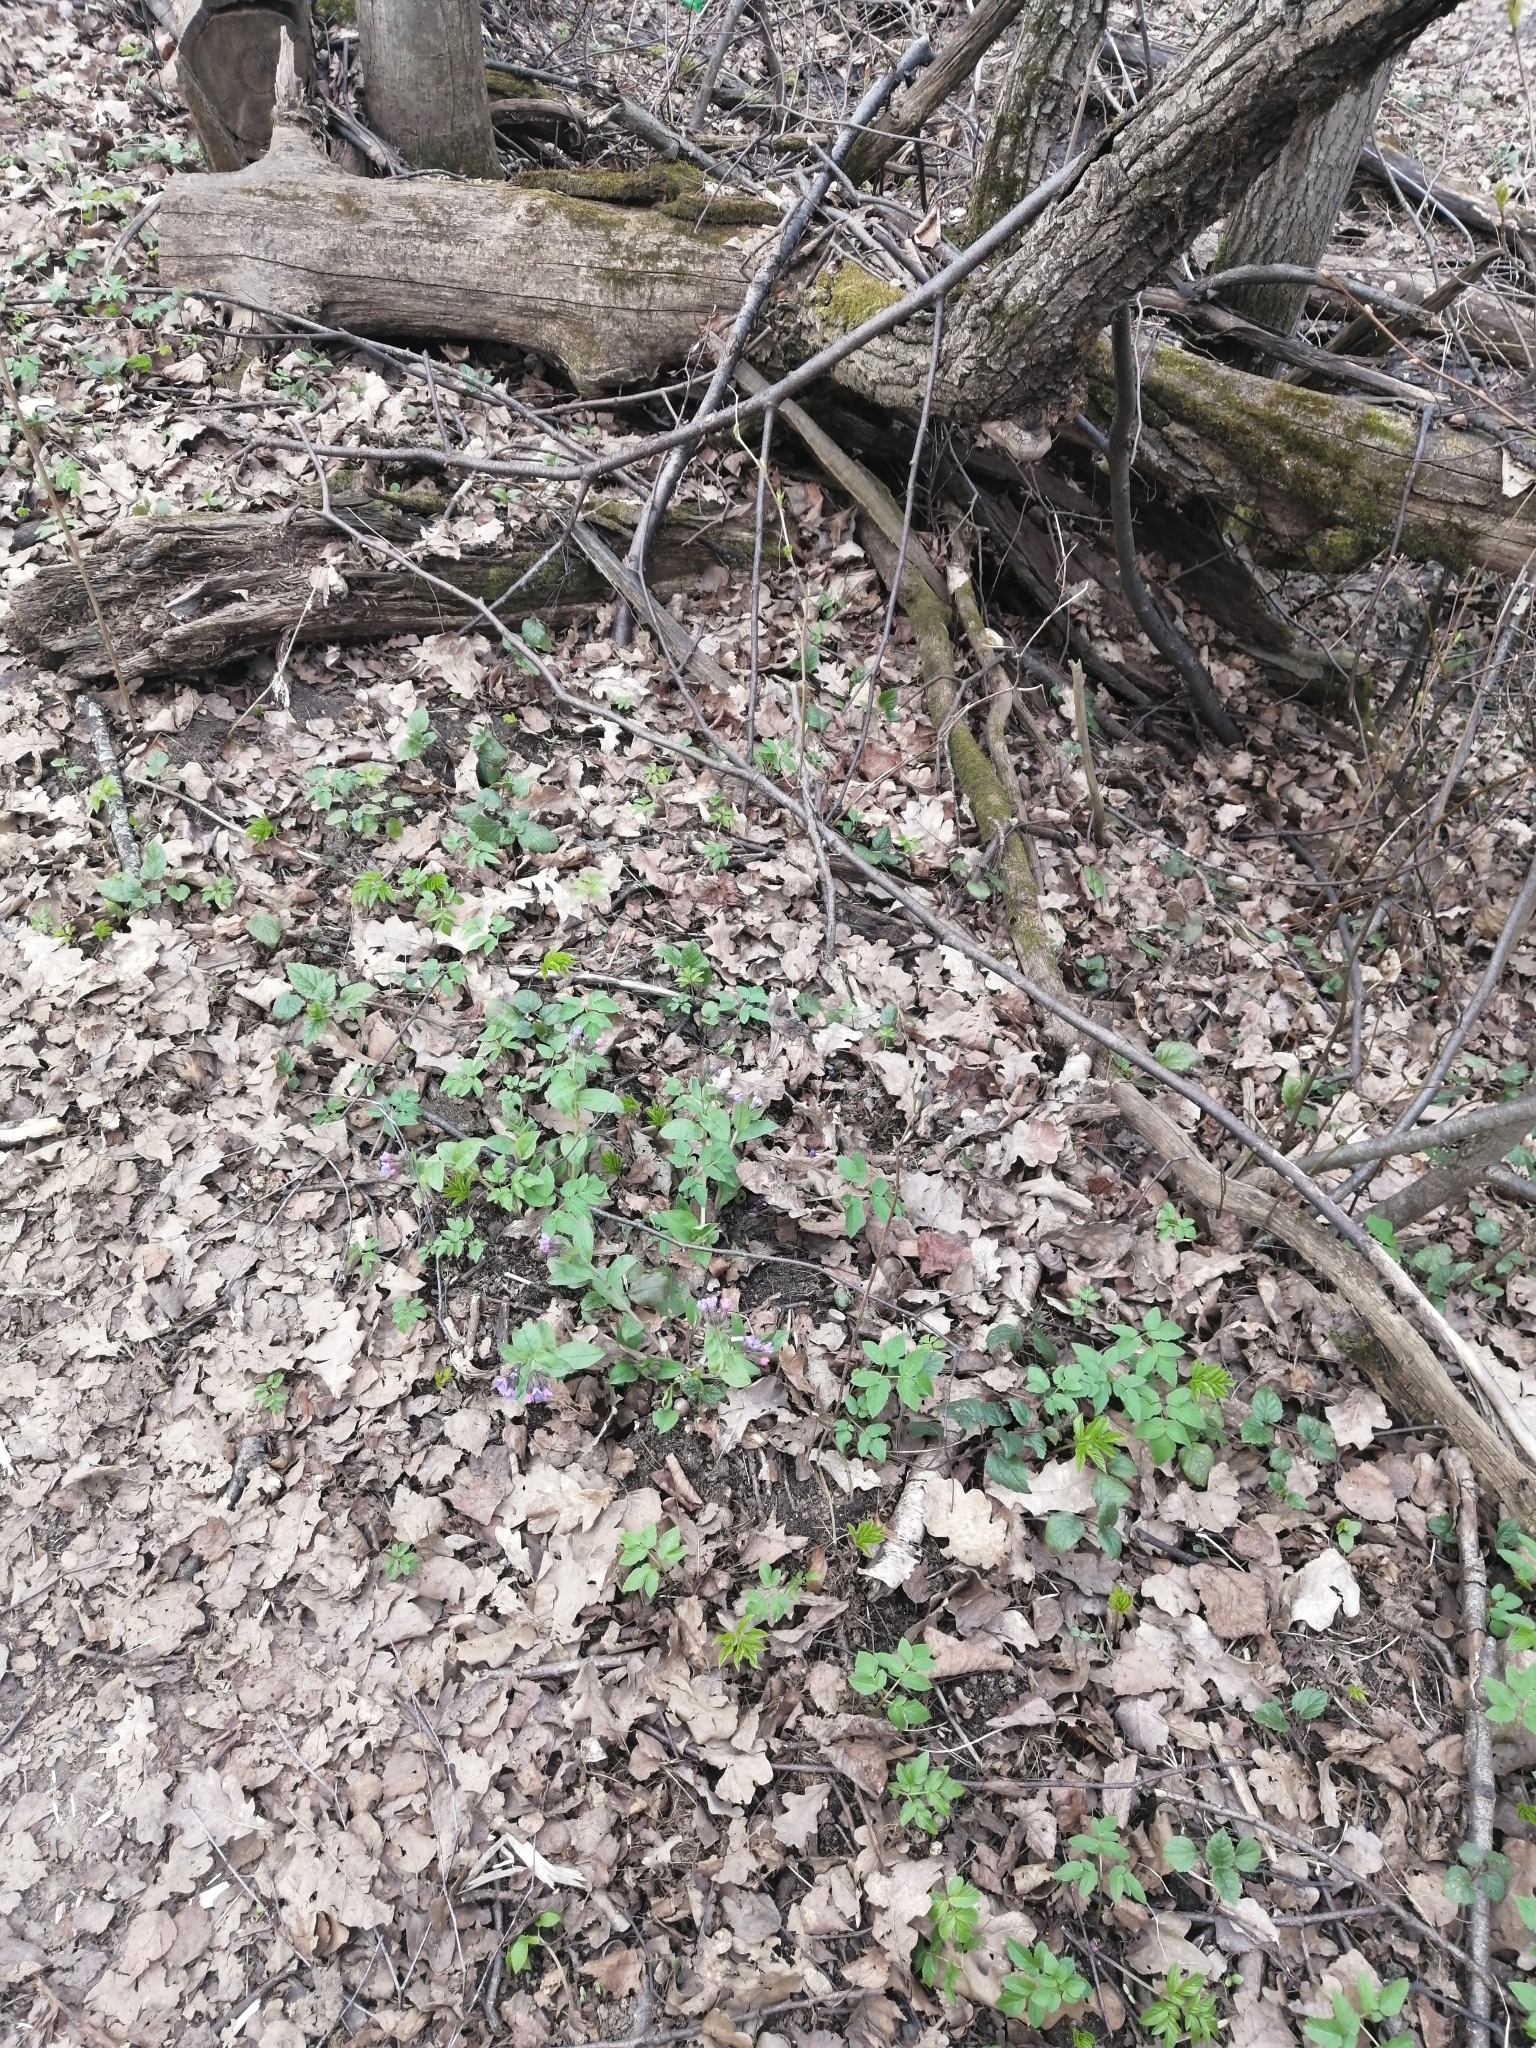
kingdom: Plantae
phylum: Tracheophyta
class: Magnoliopsida
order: Boraginales
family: Boraginaceae
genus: Pulmonaria
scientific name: Pulmonaria obscura
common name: Suffolk lungwort
